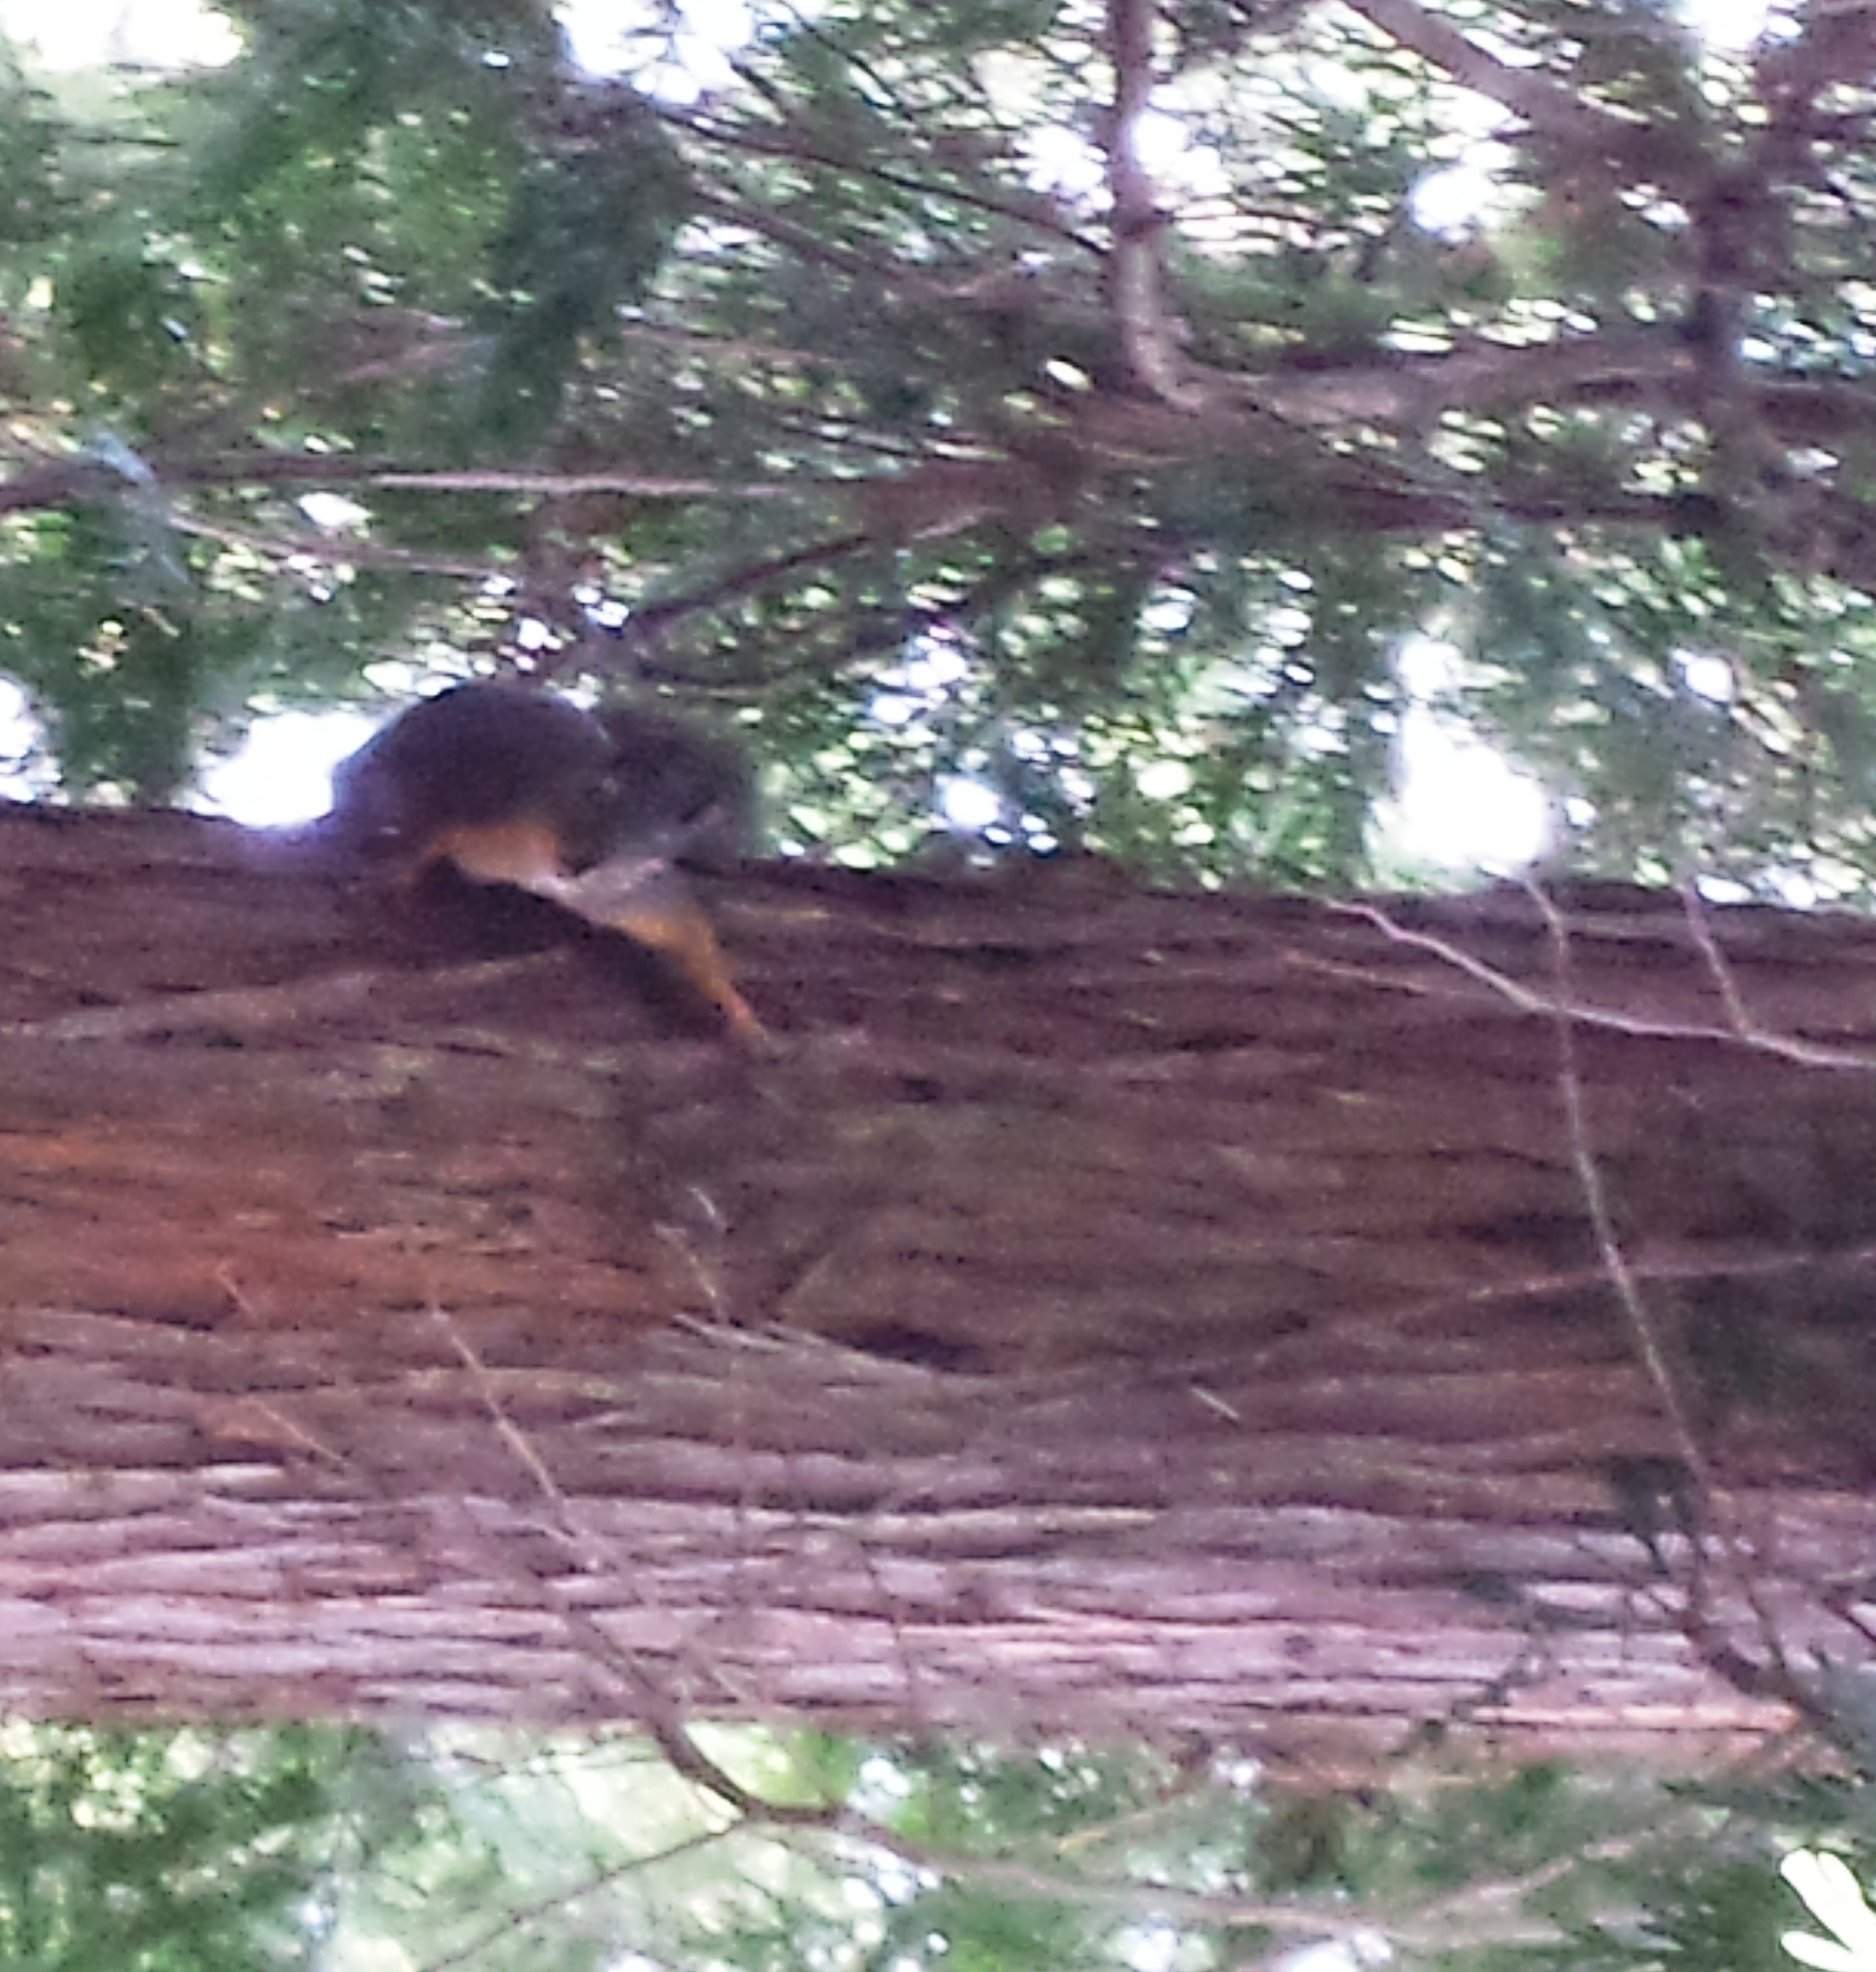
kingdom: Animalia
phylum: Chordata
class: Mammalia
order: Rodentia
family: Sciuridae
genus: Tamiasciurus
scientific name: Tamiasciurus douglasii
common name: Douglas's squirrel
